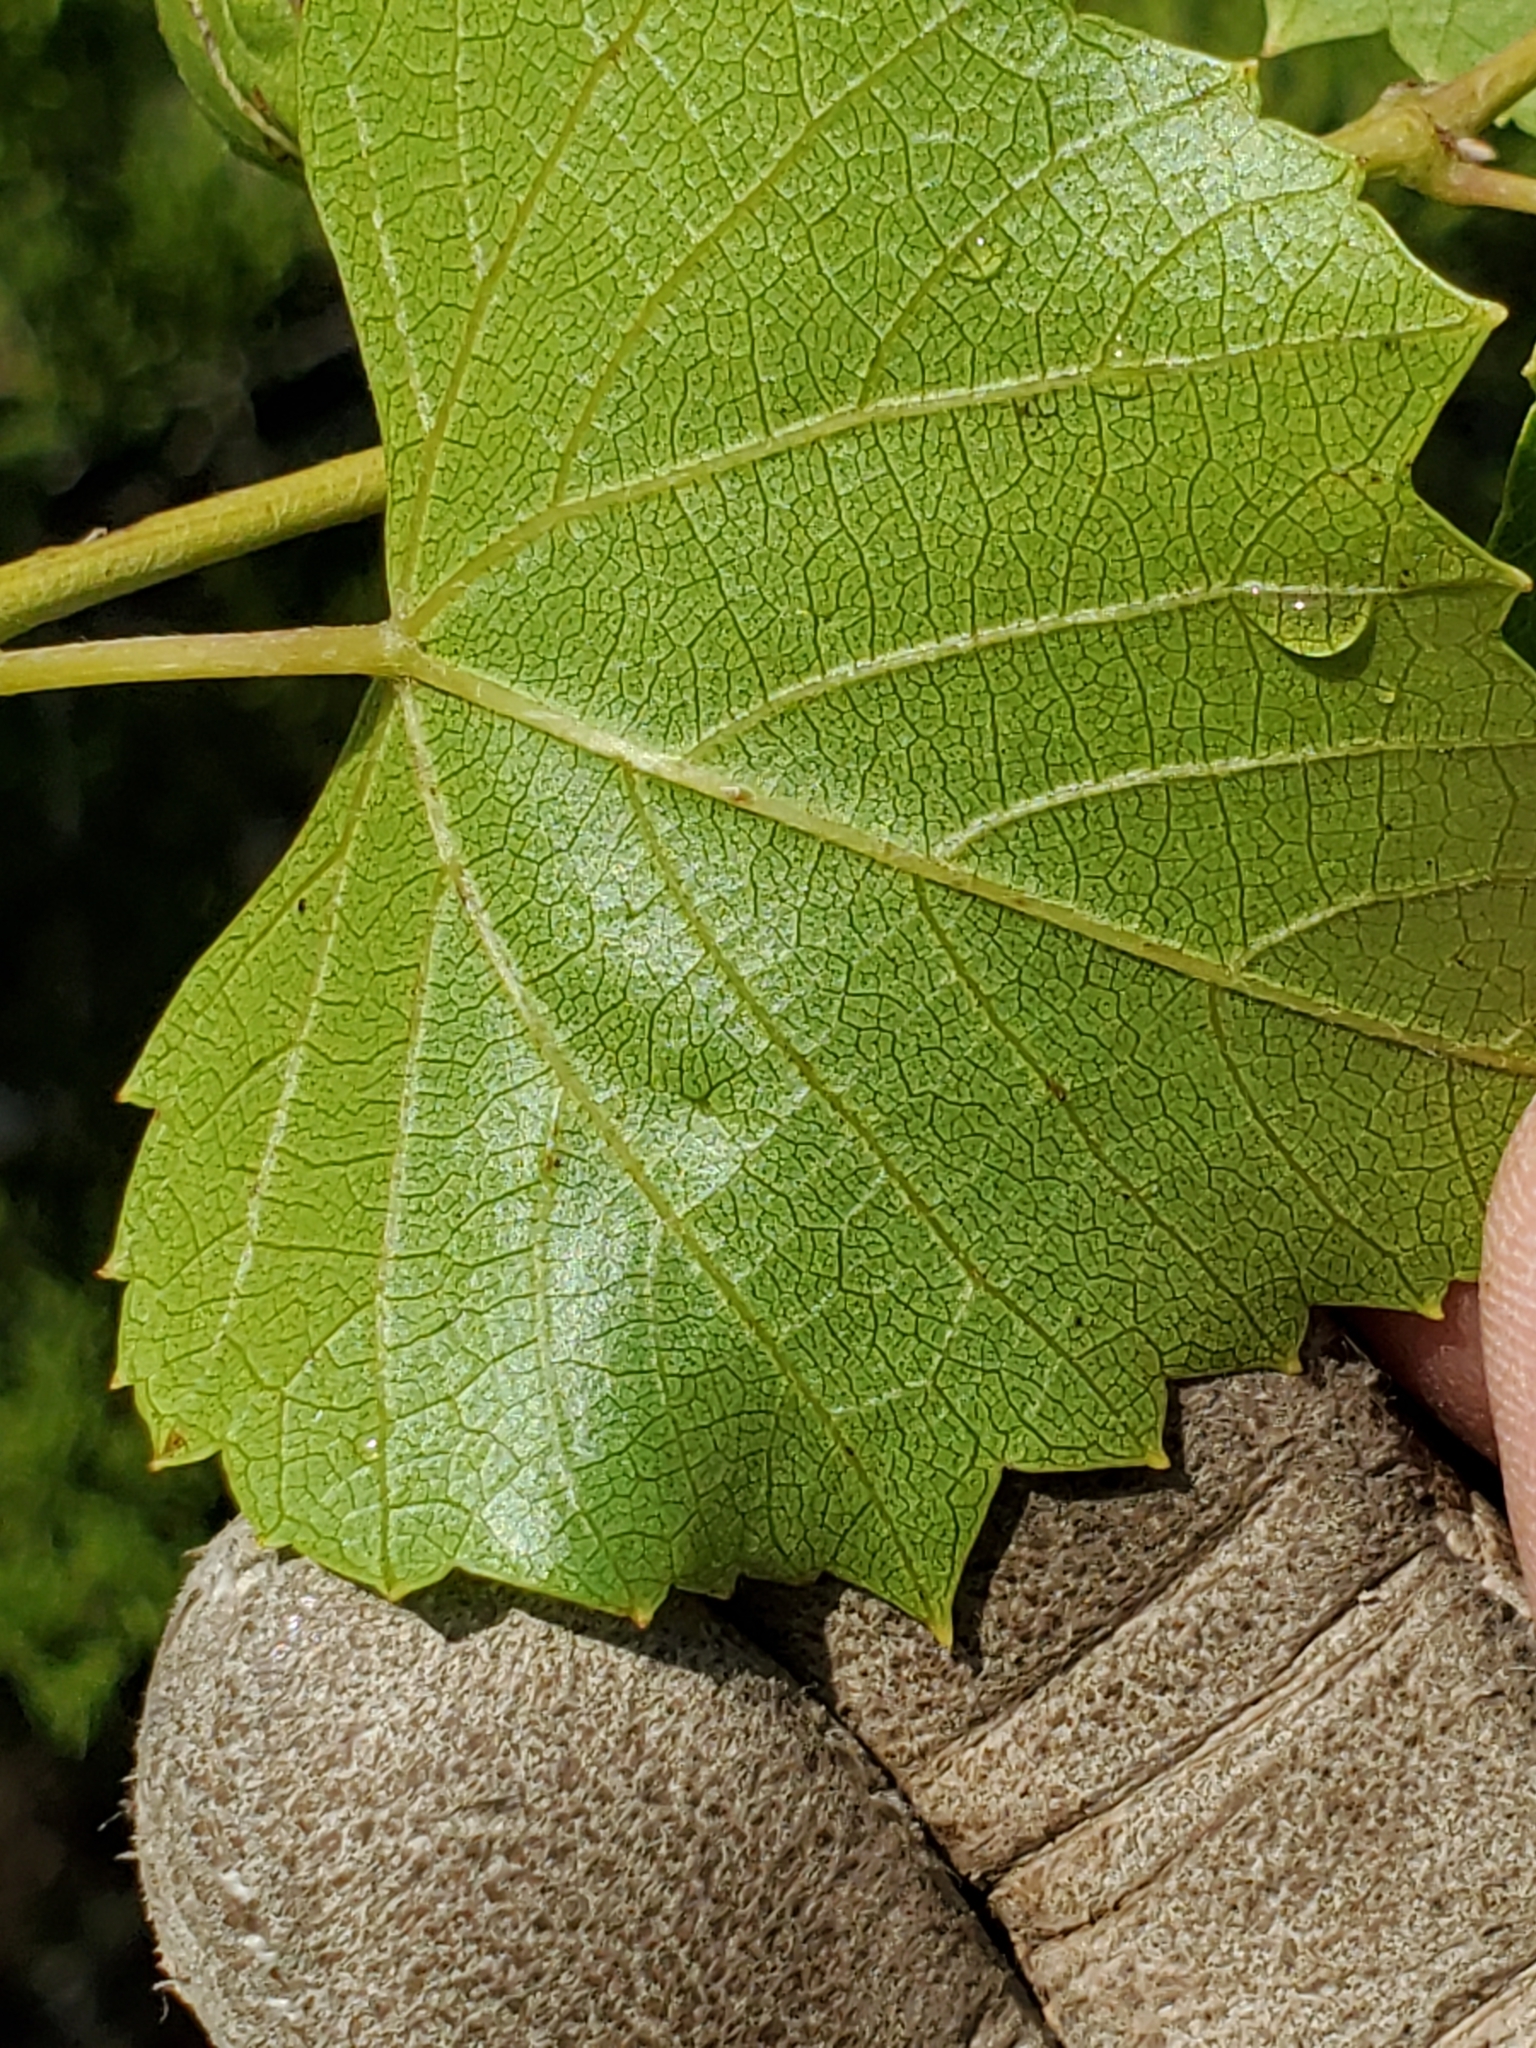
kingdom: Plantae
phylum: Tracheophyta
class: Magnoliopsida
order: Vitales
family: Vitaceae
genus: Vitis
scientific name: Vitis monticola
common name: Mountain grape
